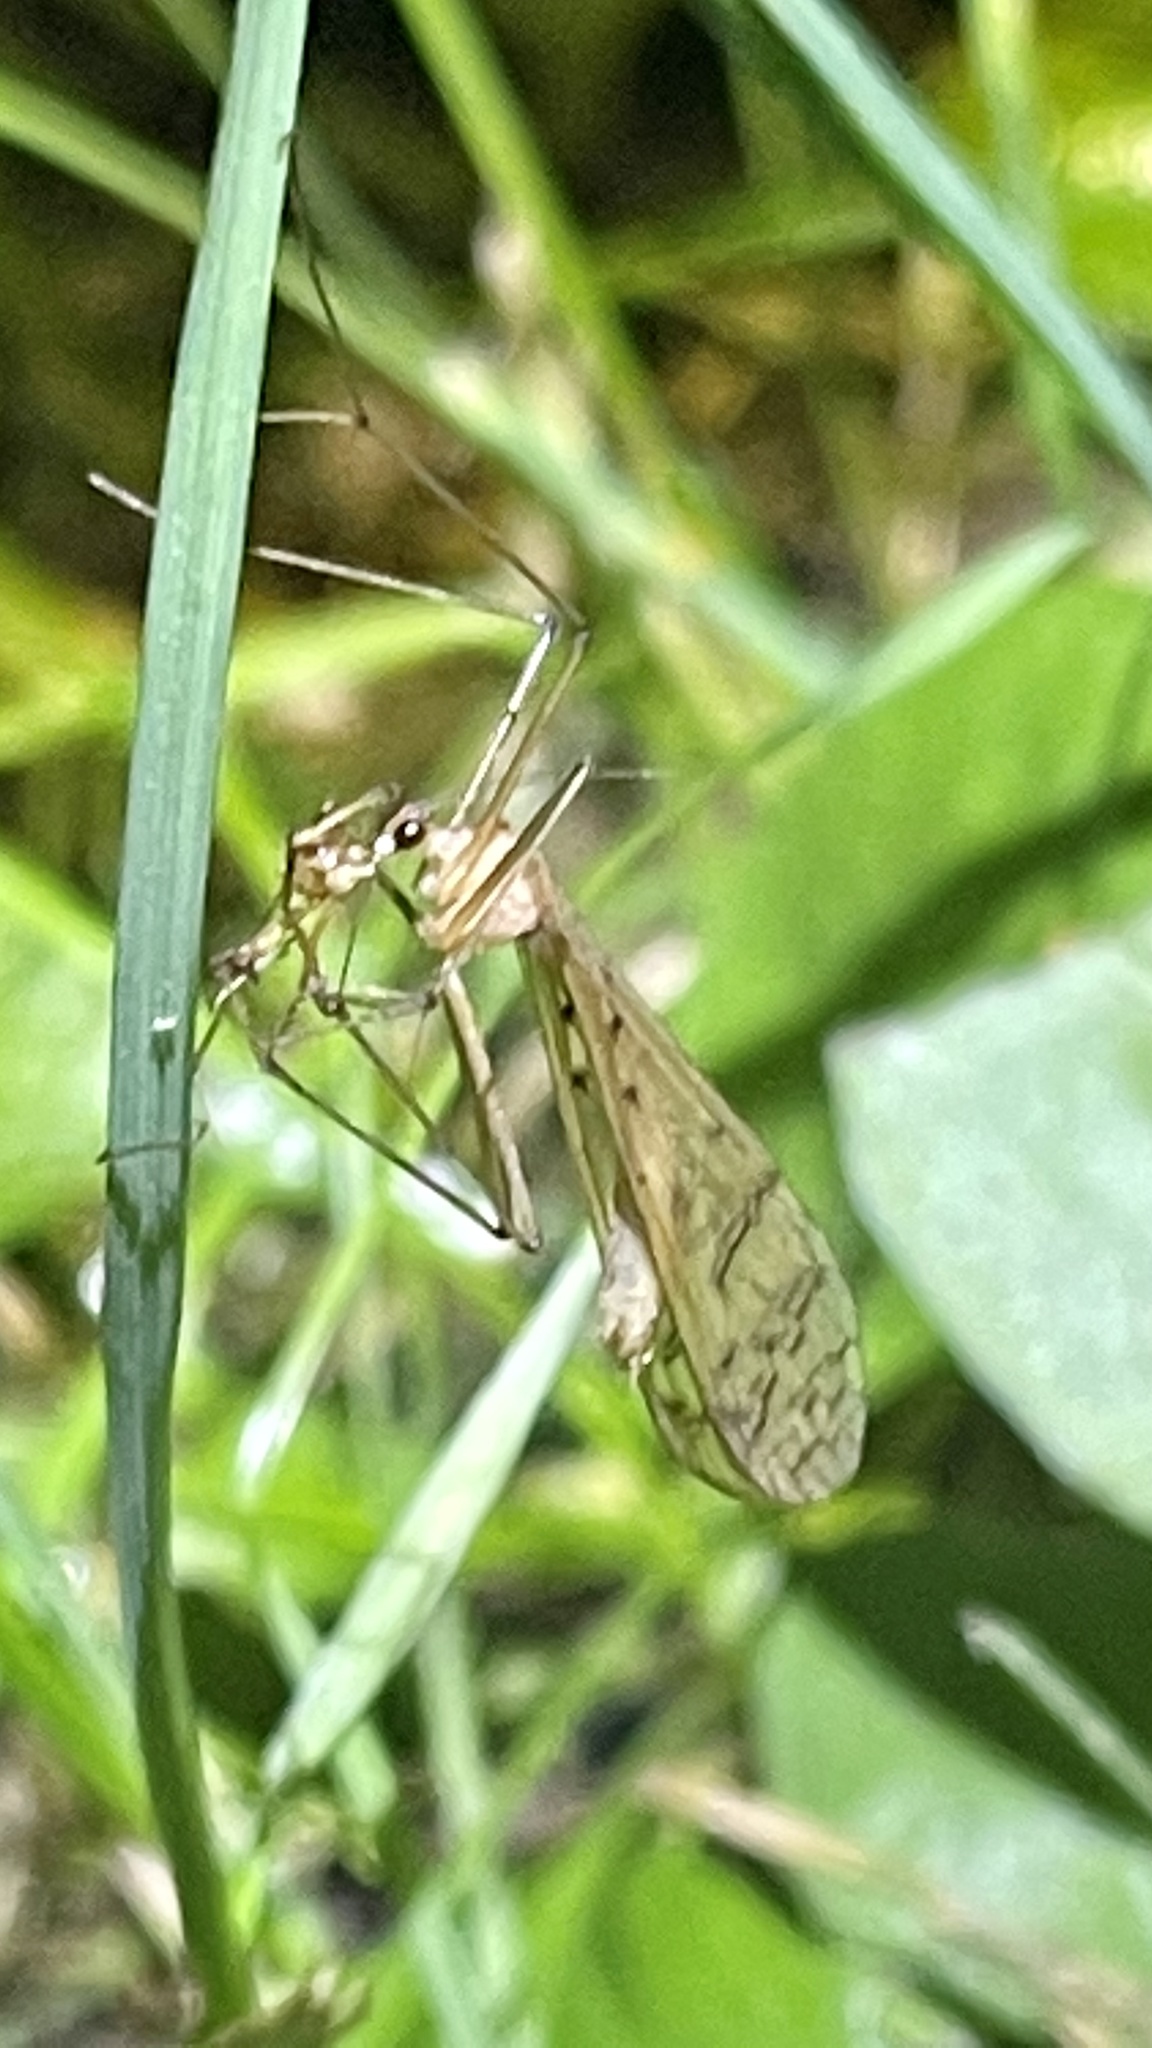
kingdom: Animalia
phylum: Arthropoda
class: Insecta
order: Mecoptera
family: Bittacidae
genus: Bittacus
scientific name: Bittacus strigosus
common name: Thin hangingfly
